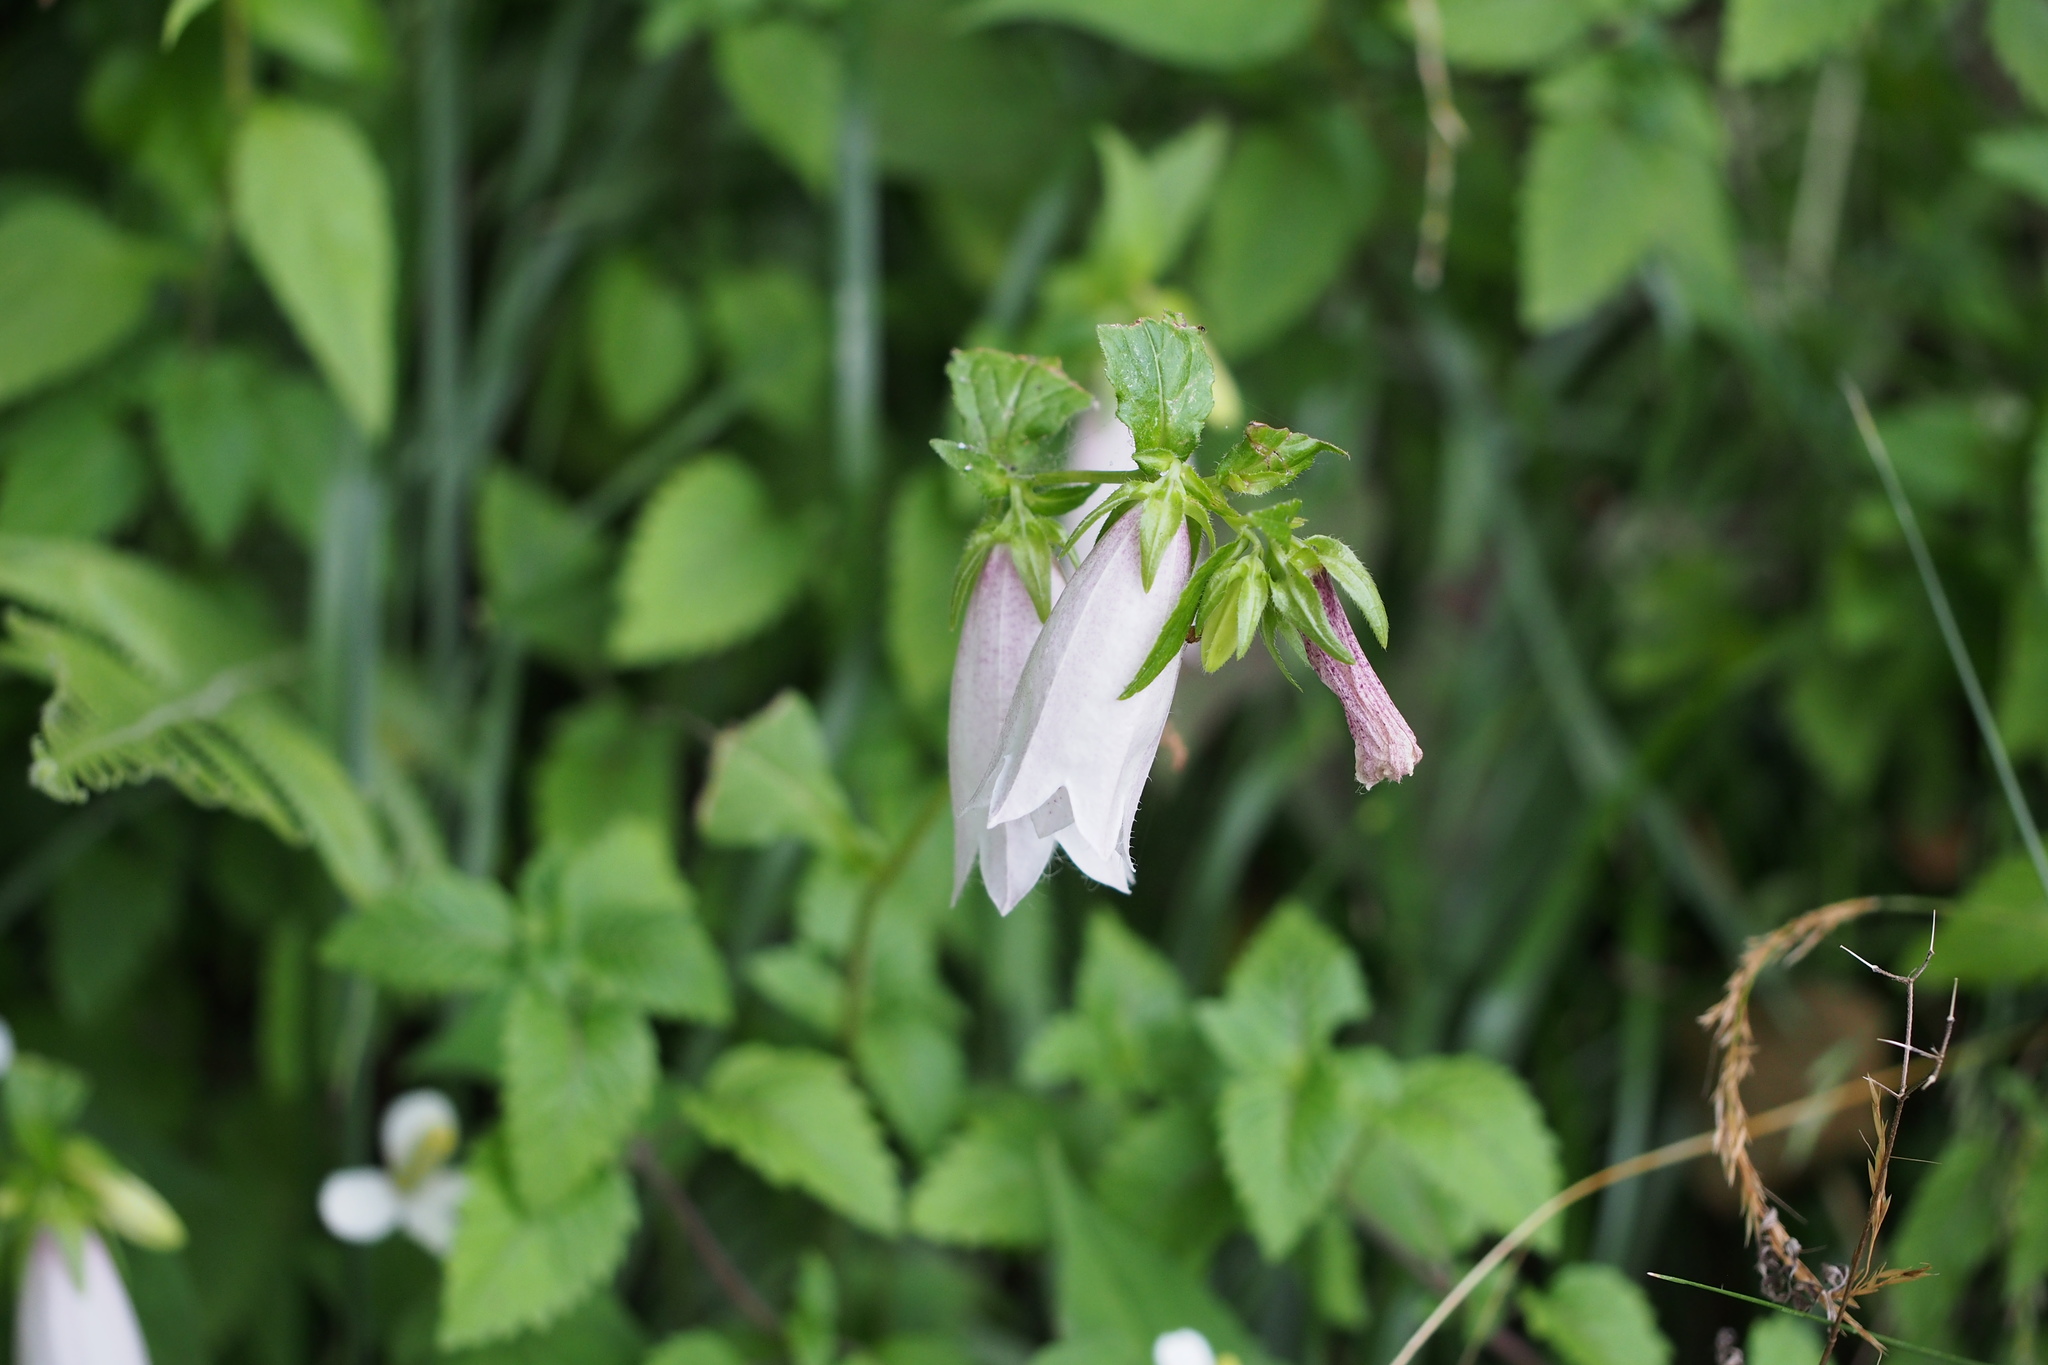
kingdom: Plantae
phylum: Tracheophyta
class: Magnoliopsida
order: Asterales
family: Campanulaceae
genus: Campanula
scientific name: Campanula punctata
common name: Spotted bellflower
